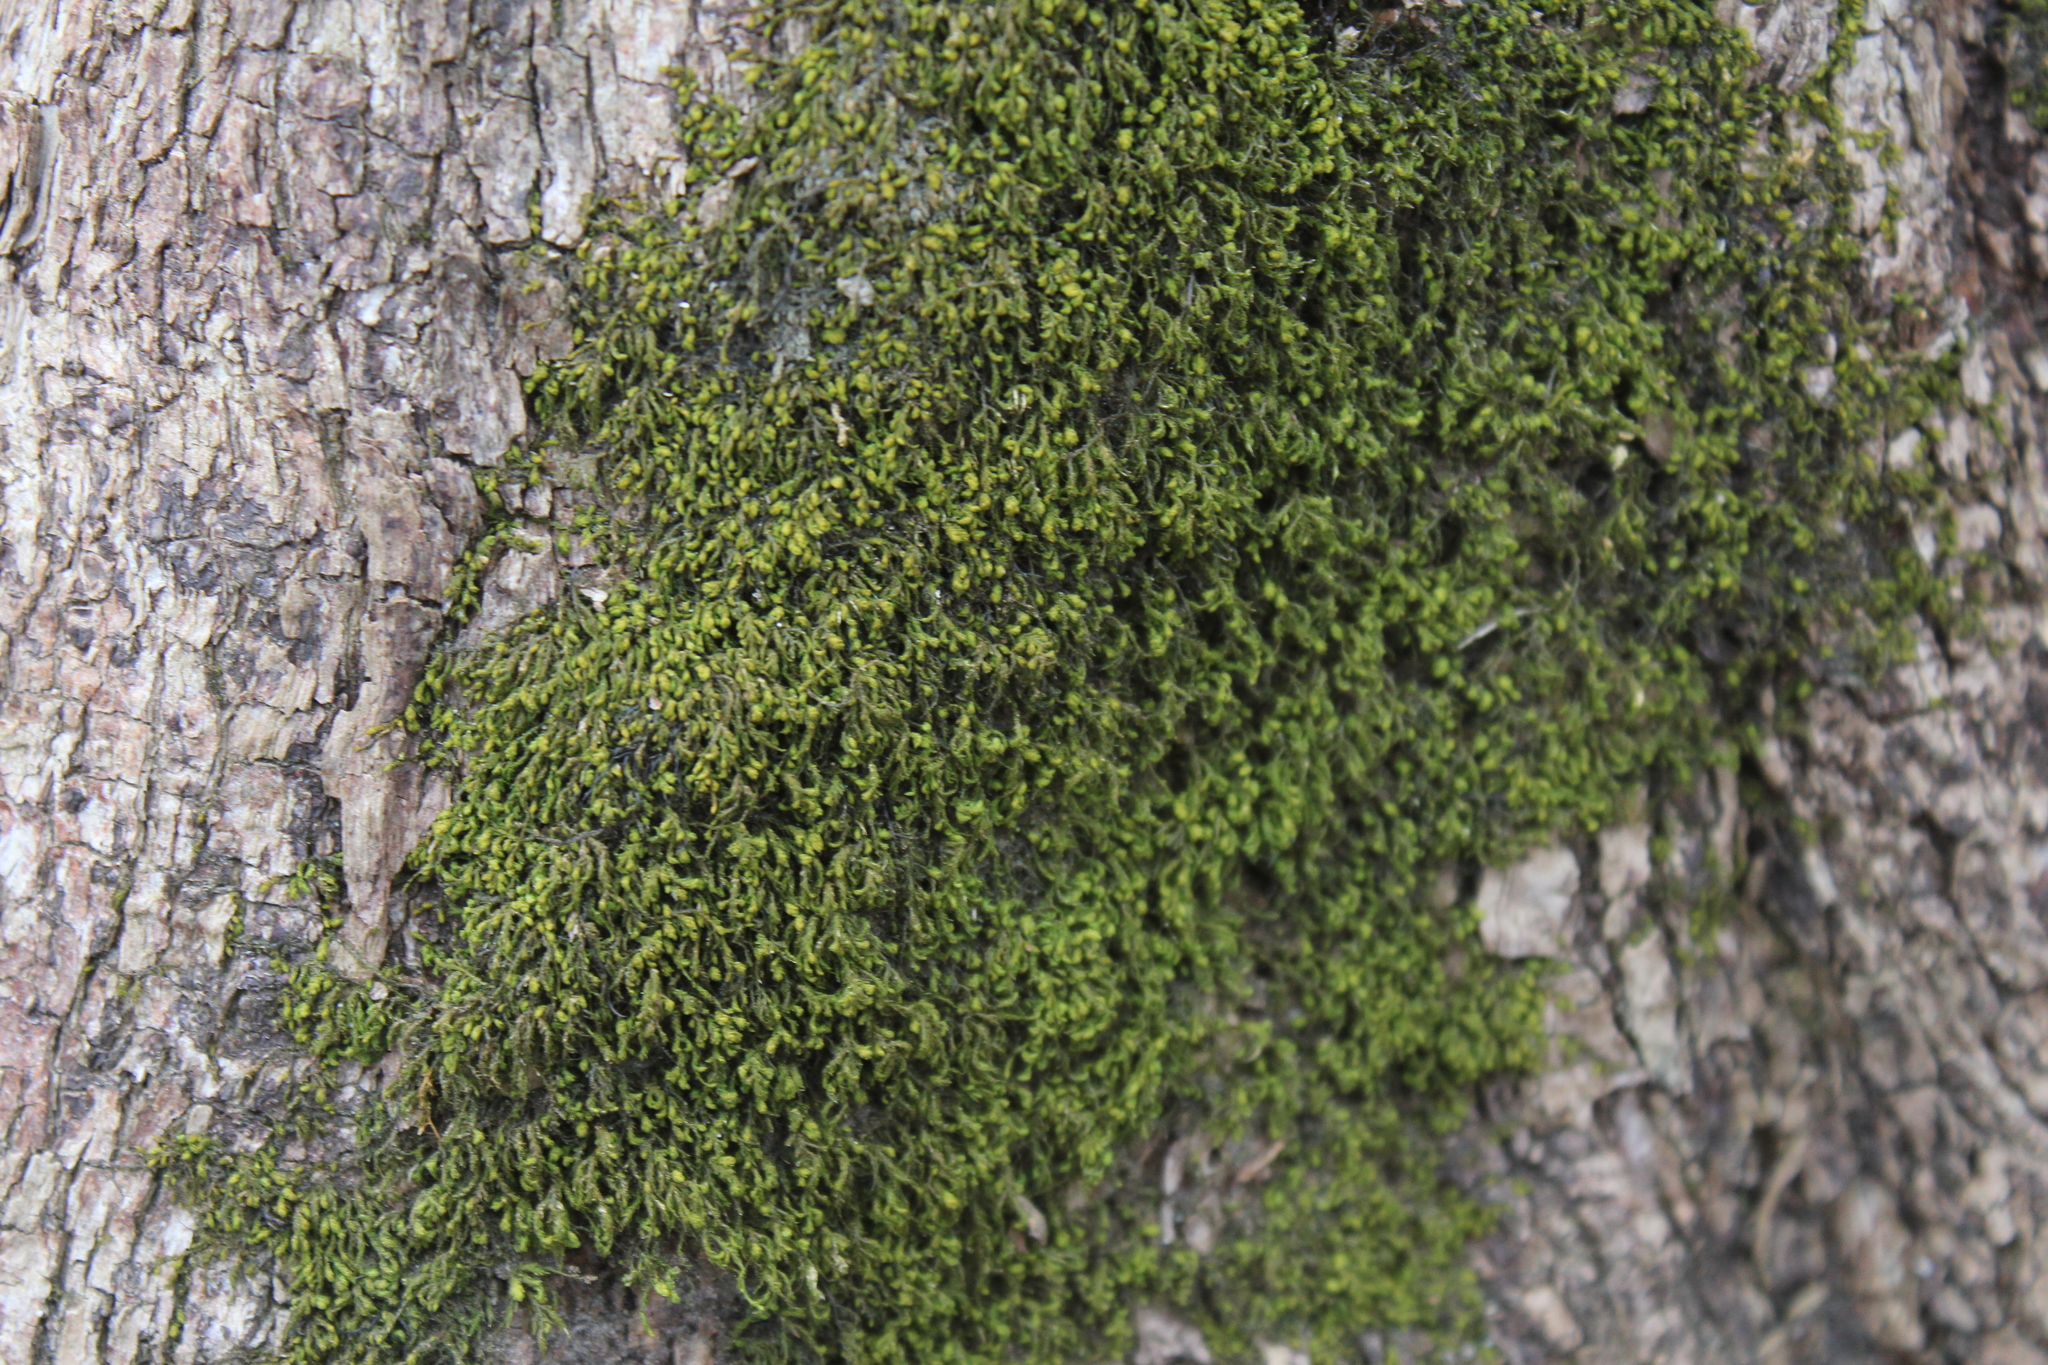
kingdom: Plantae
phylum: Bryophyta
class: Bryopsida
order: Hypnales
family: Neckeraceae
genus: Pseudanomodon
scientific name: Pseudanomodon attenuatus
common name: Tree-skirt moss
